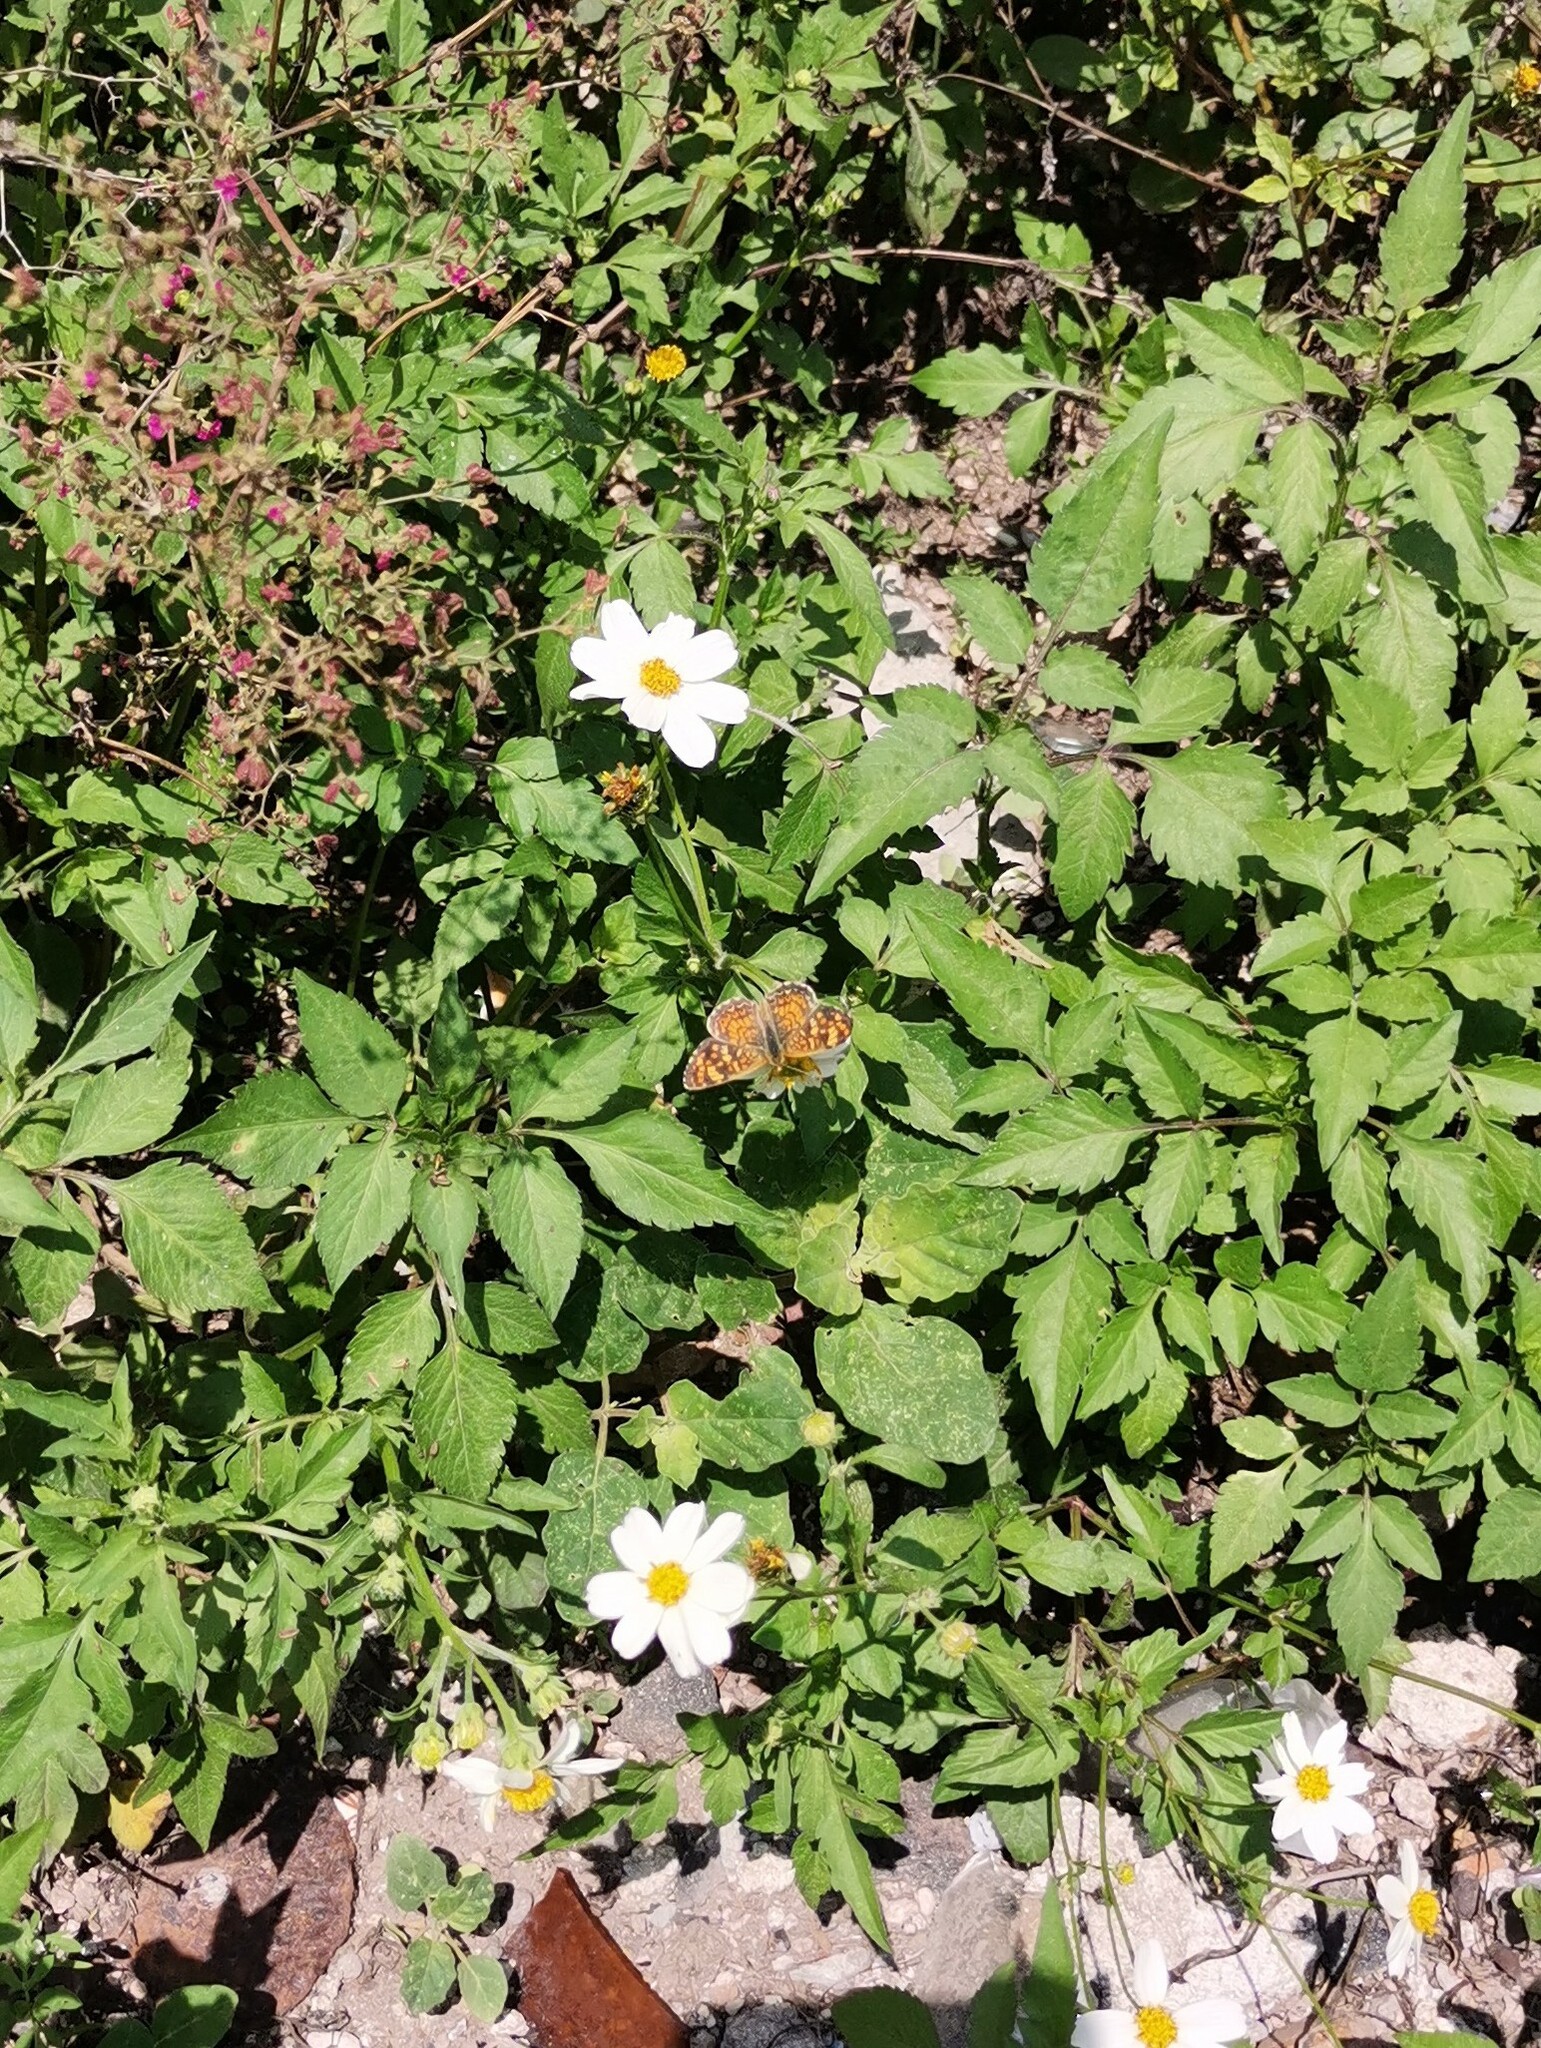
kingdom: Animalia
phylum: Arthropoda
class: Insecta
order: Lepidoptera
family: Nymphalidae
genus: Phyciodes
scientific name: Phyciodes picta
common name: Painted crescent
